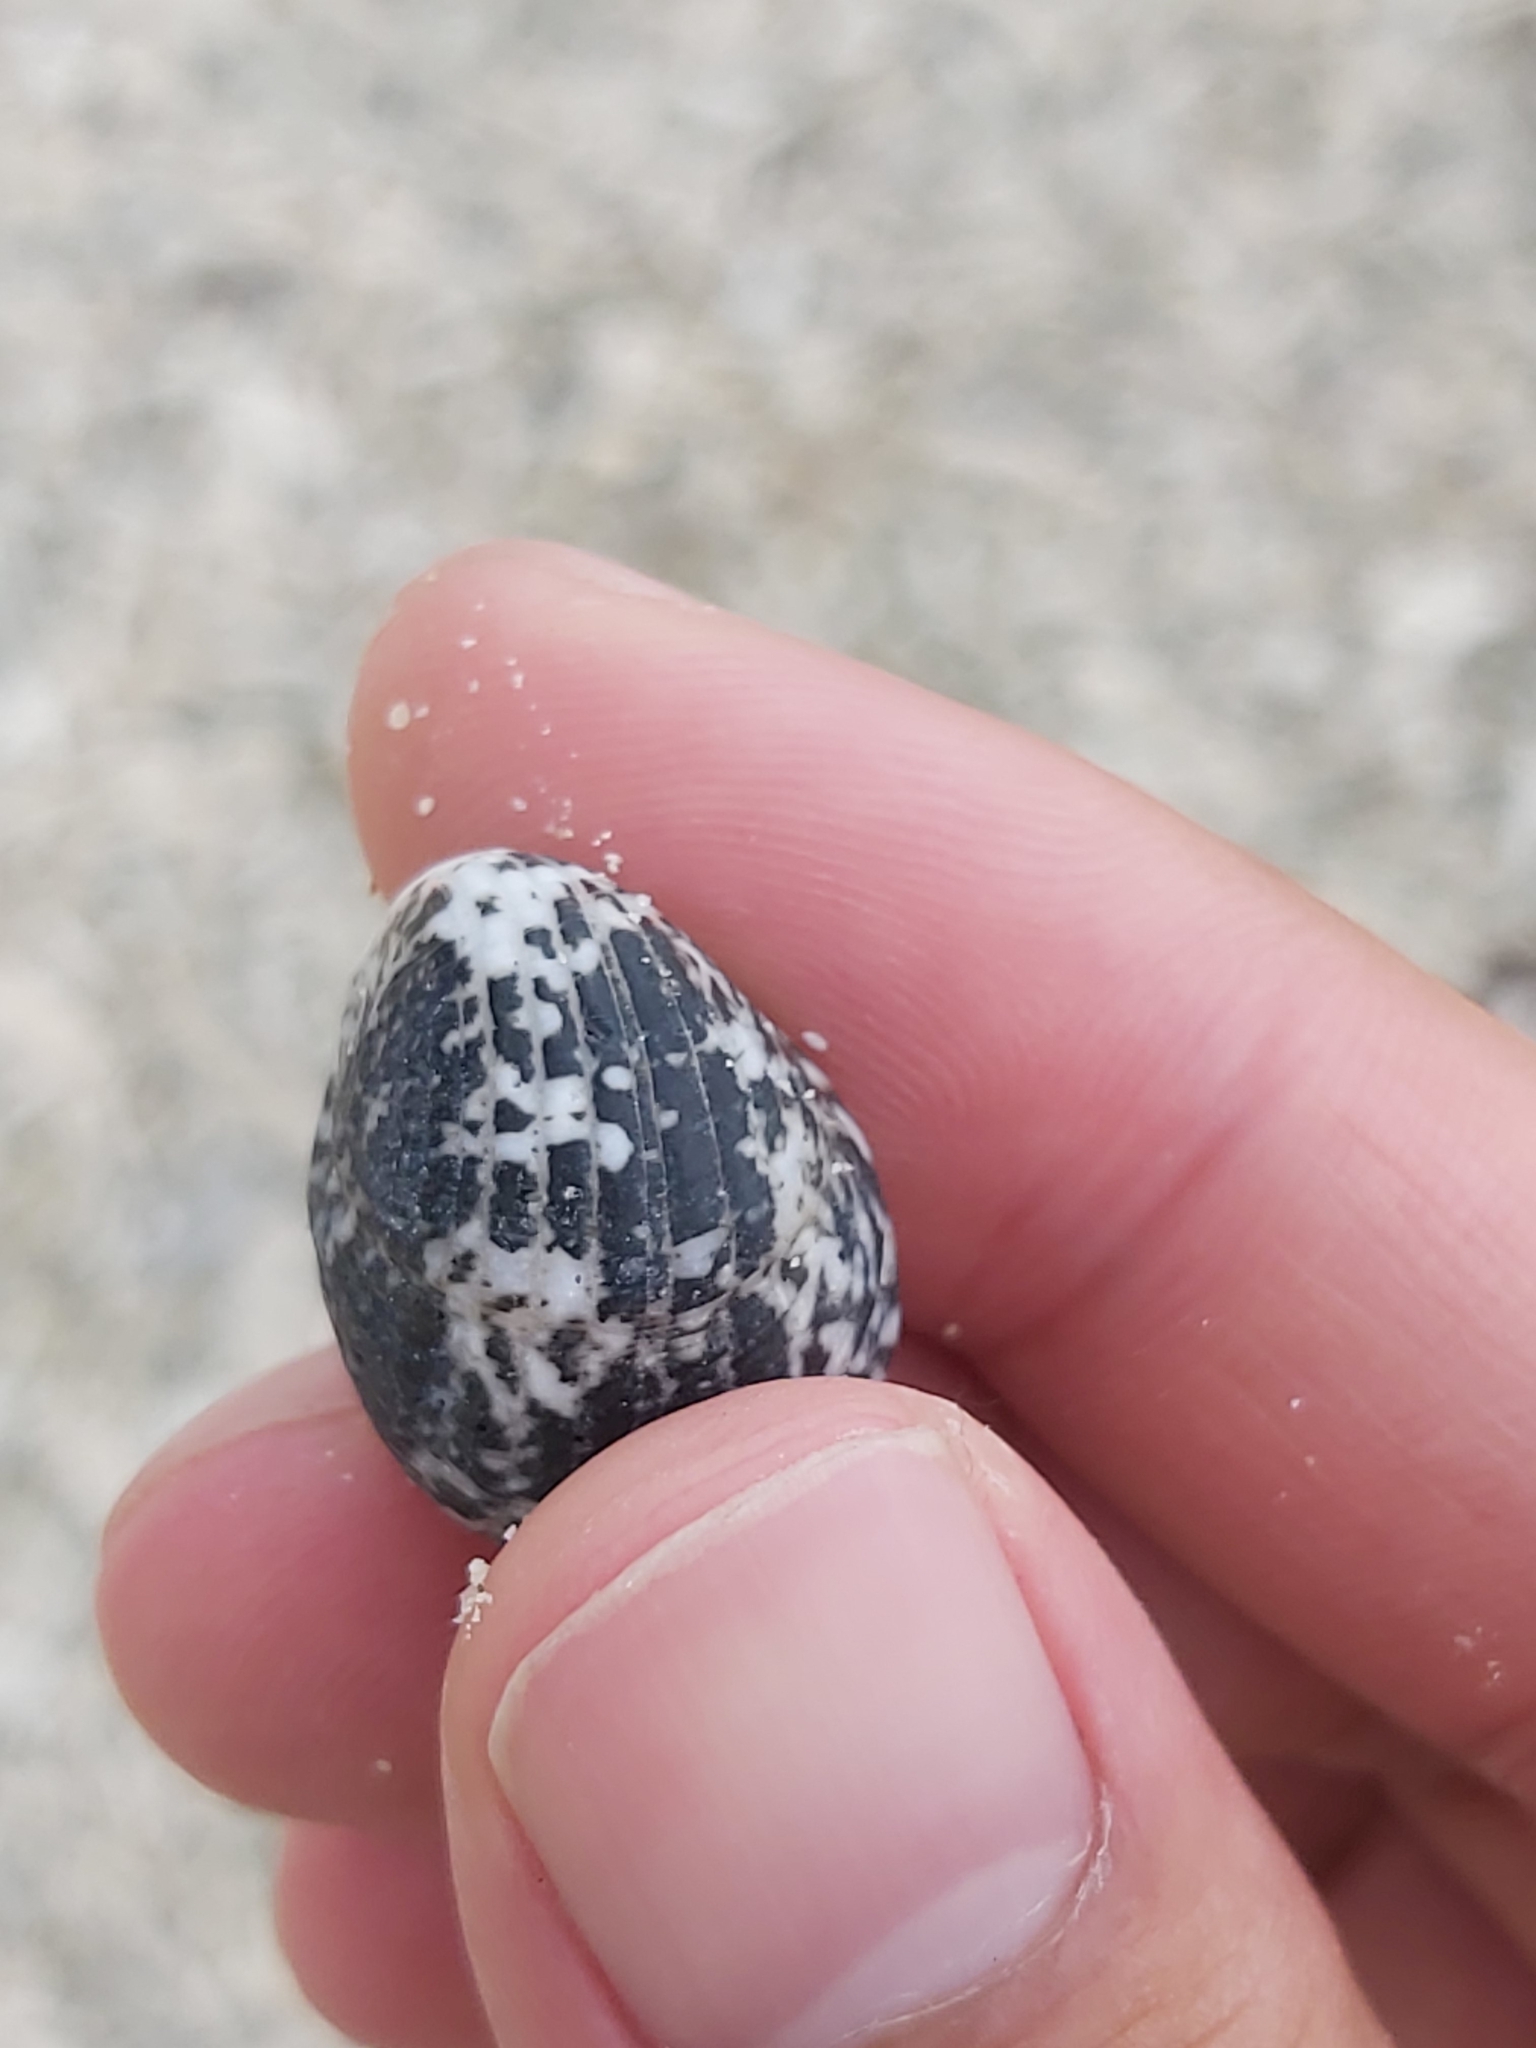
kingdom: Animalia
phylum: Mollusca
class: Gastropoda
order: Cycloneritida
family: Neritidae
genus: Nerita
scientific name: Nerita albicilla
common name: Blotched nerite
